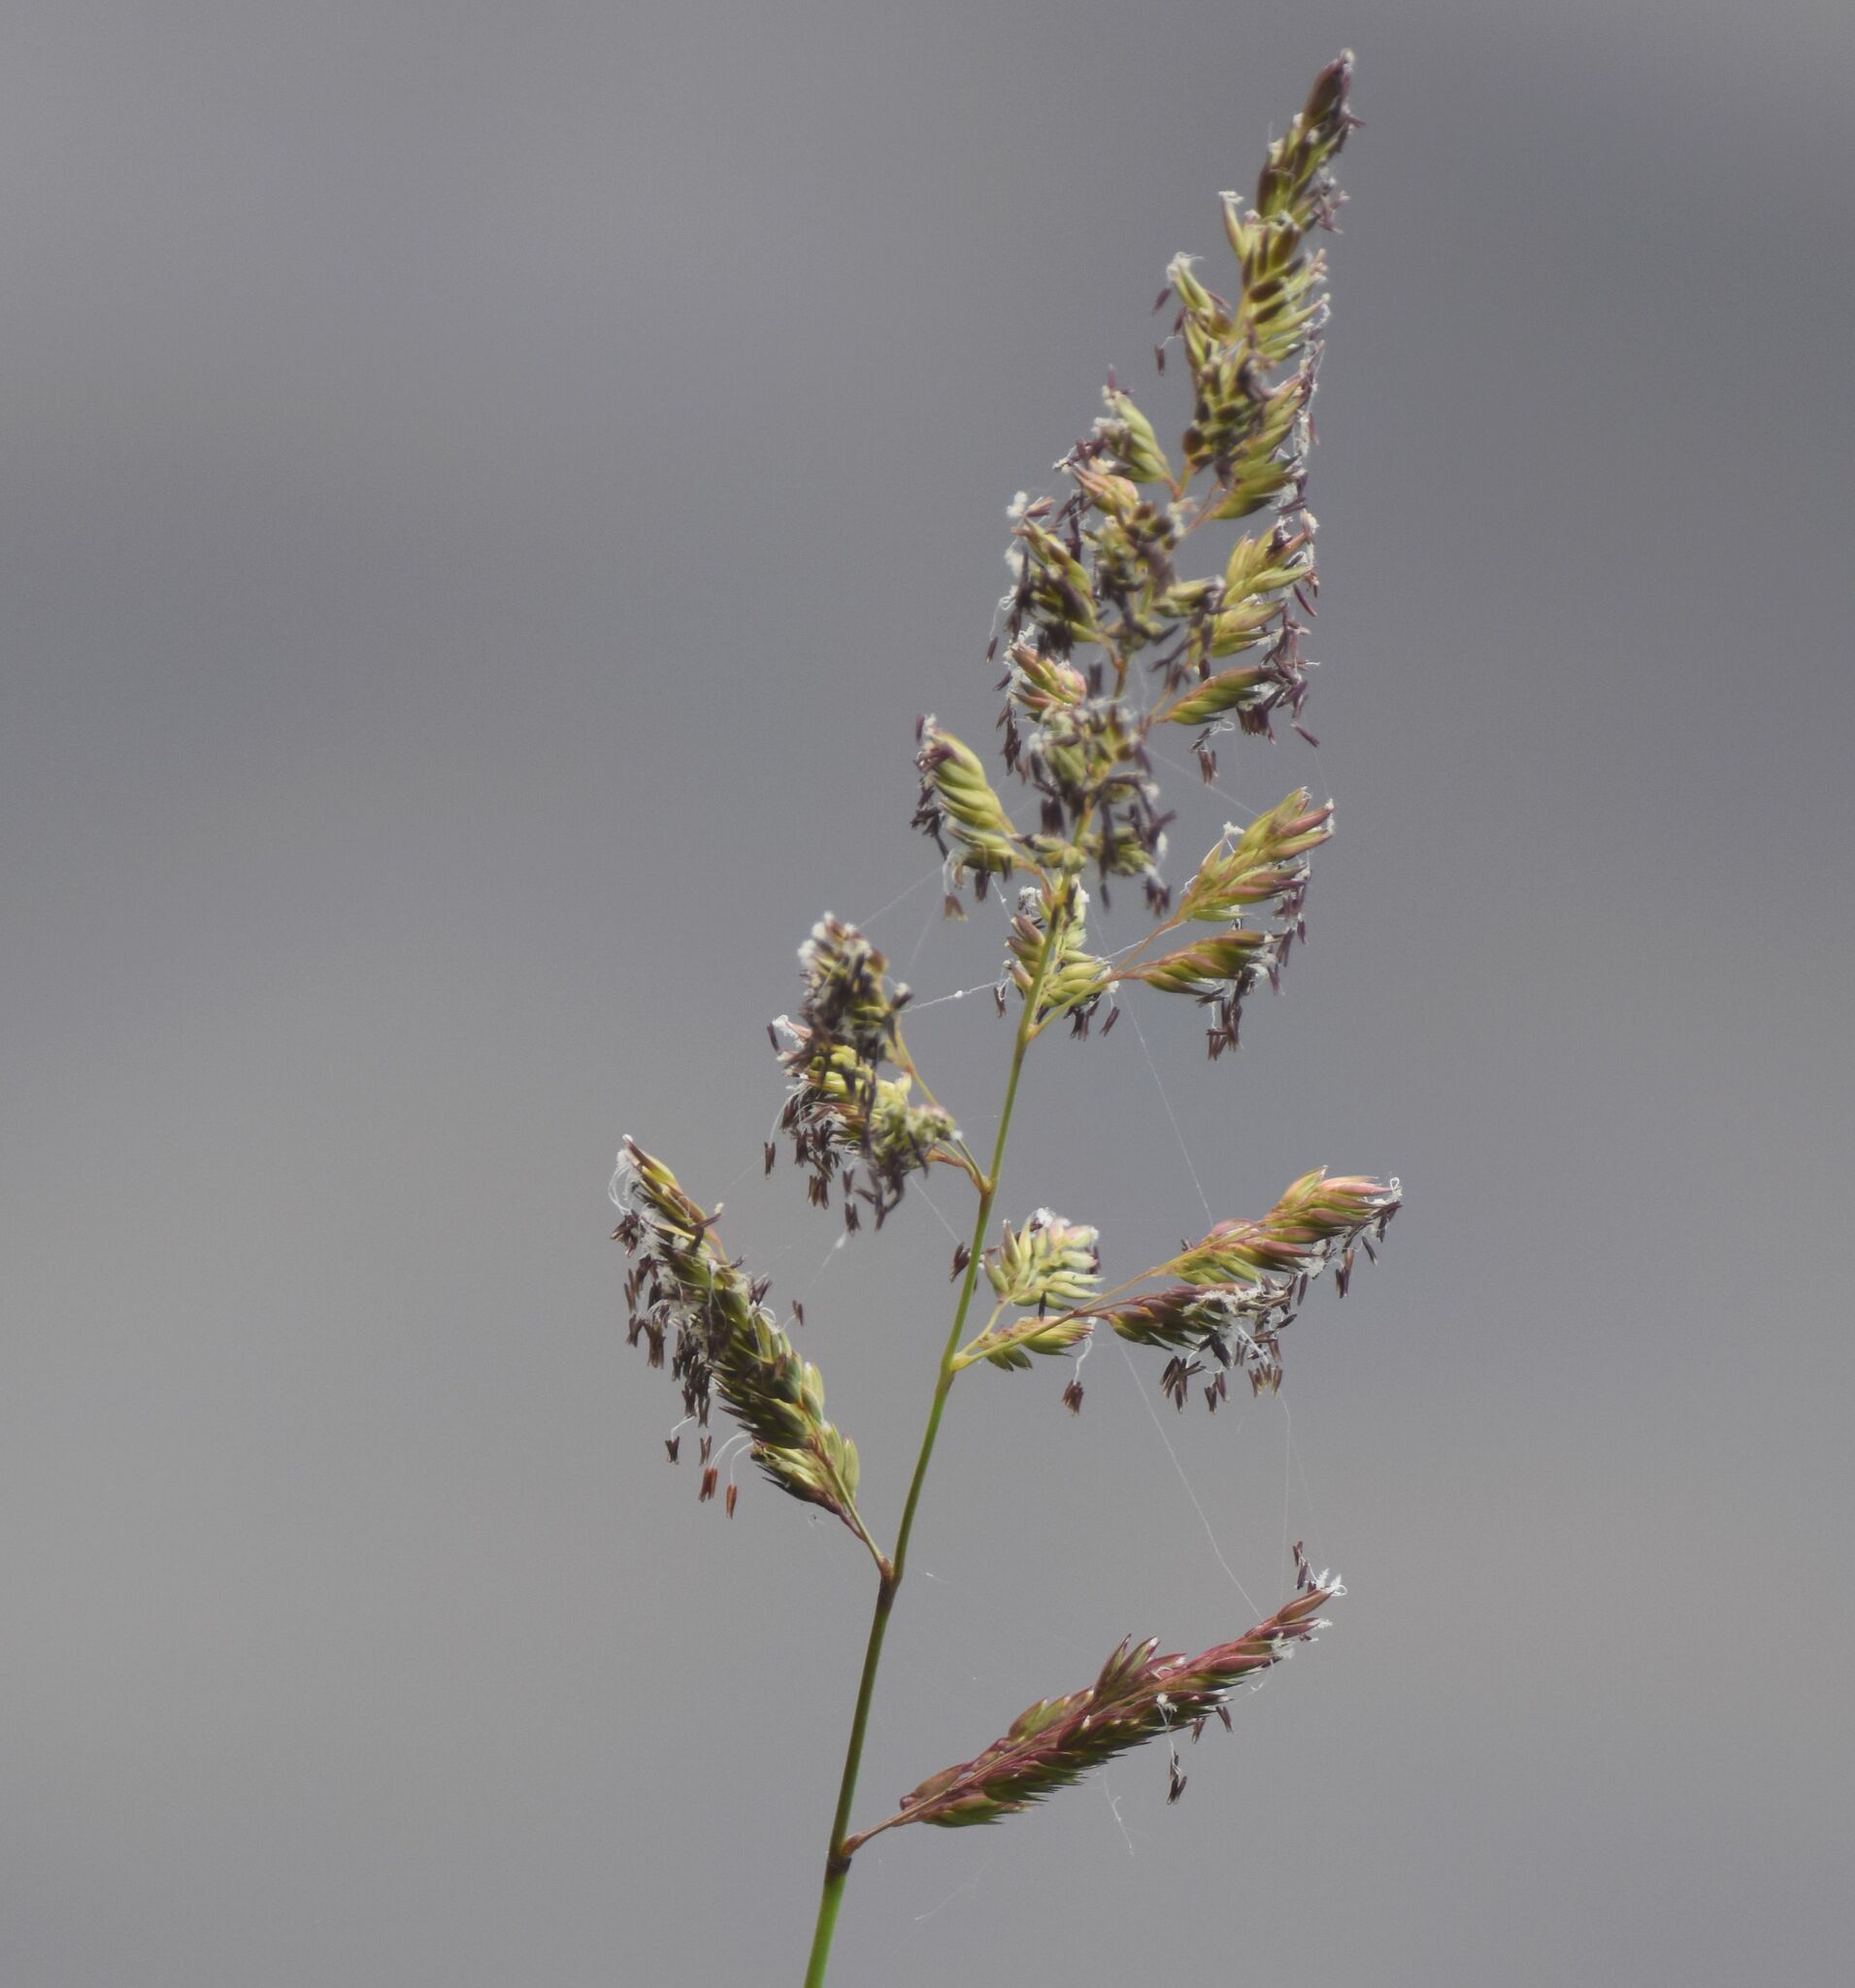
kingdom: Plantae
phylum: Tracheophyta
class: Liliopsida
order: Poales
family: Poaceae
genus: Phalaris
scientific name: Phalaris arundinacea
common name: Reed canary-grass
